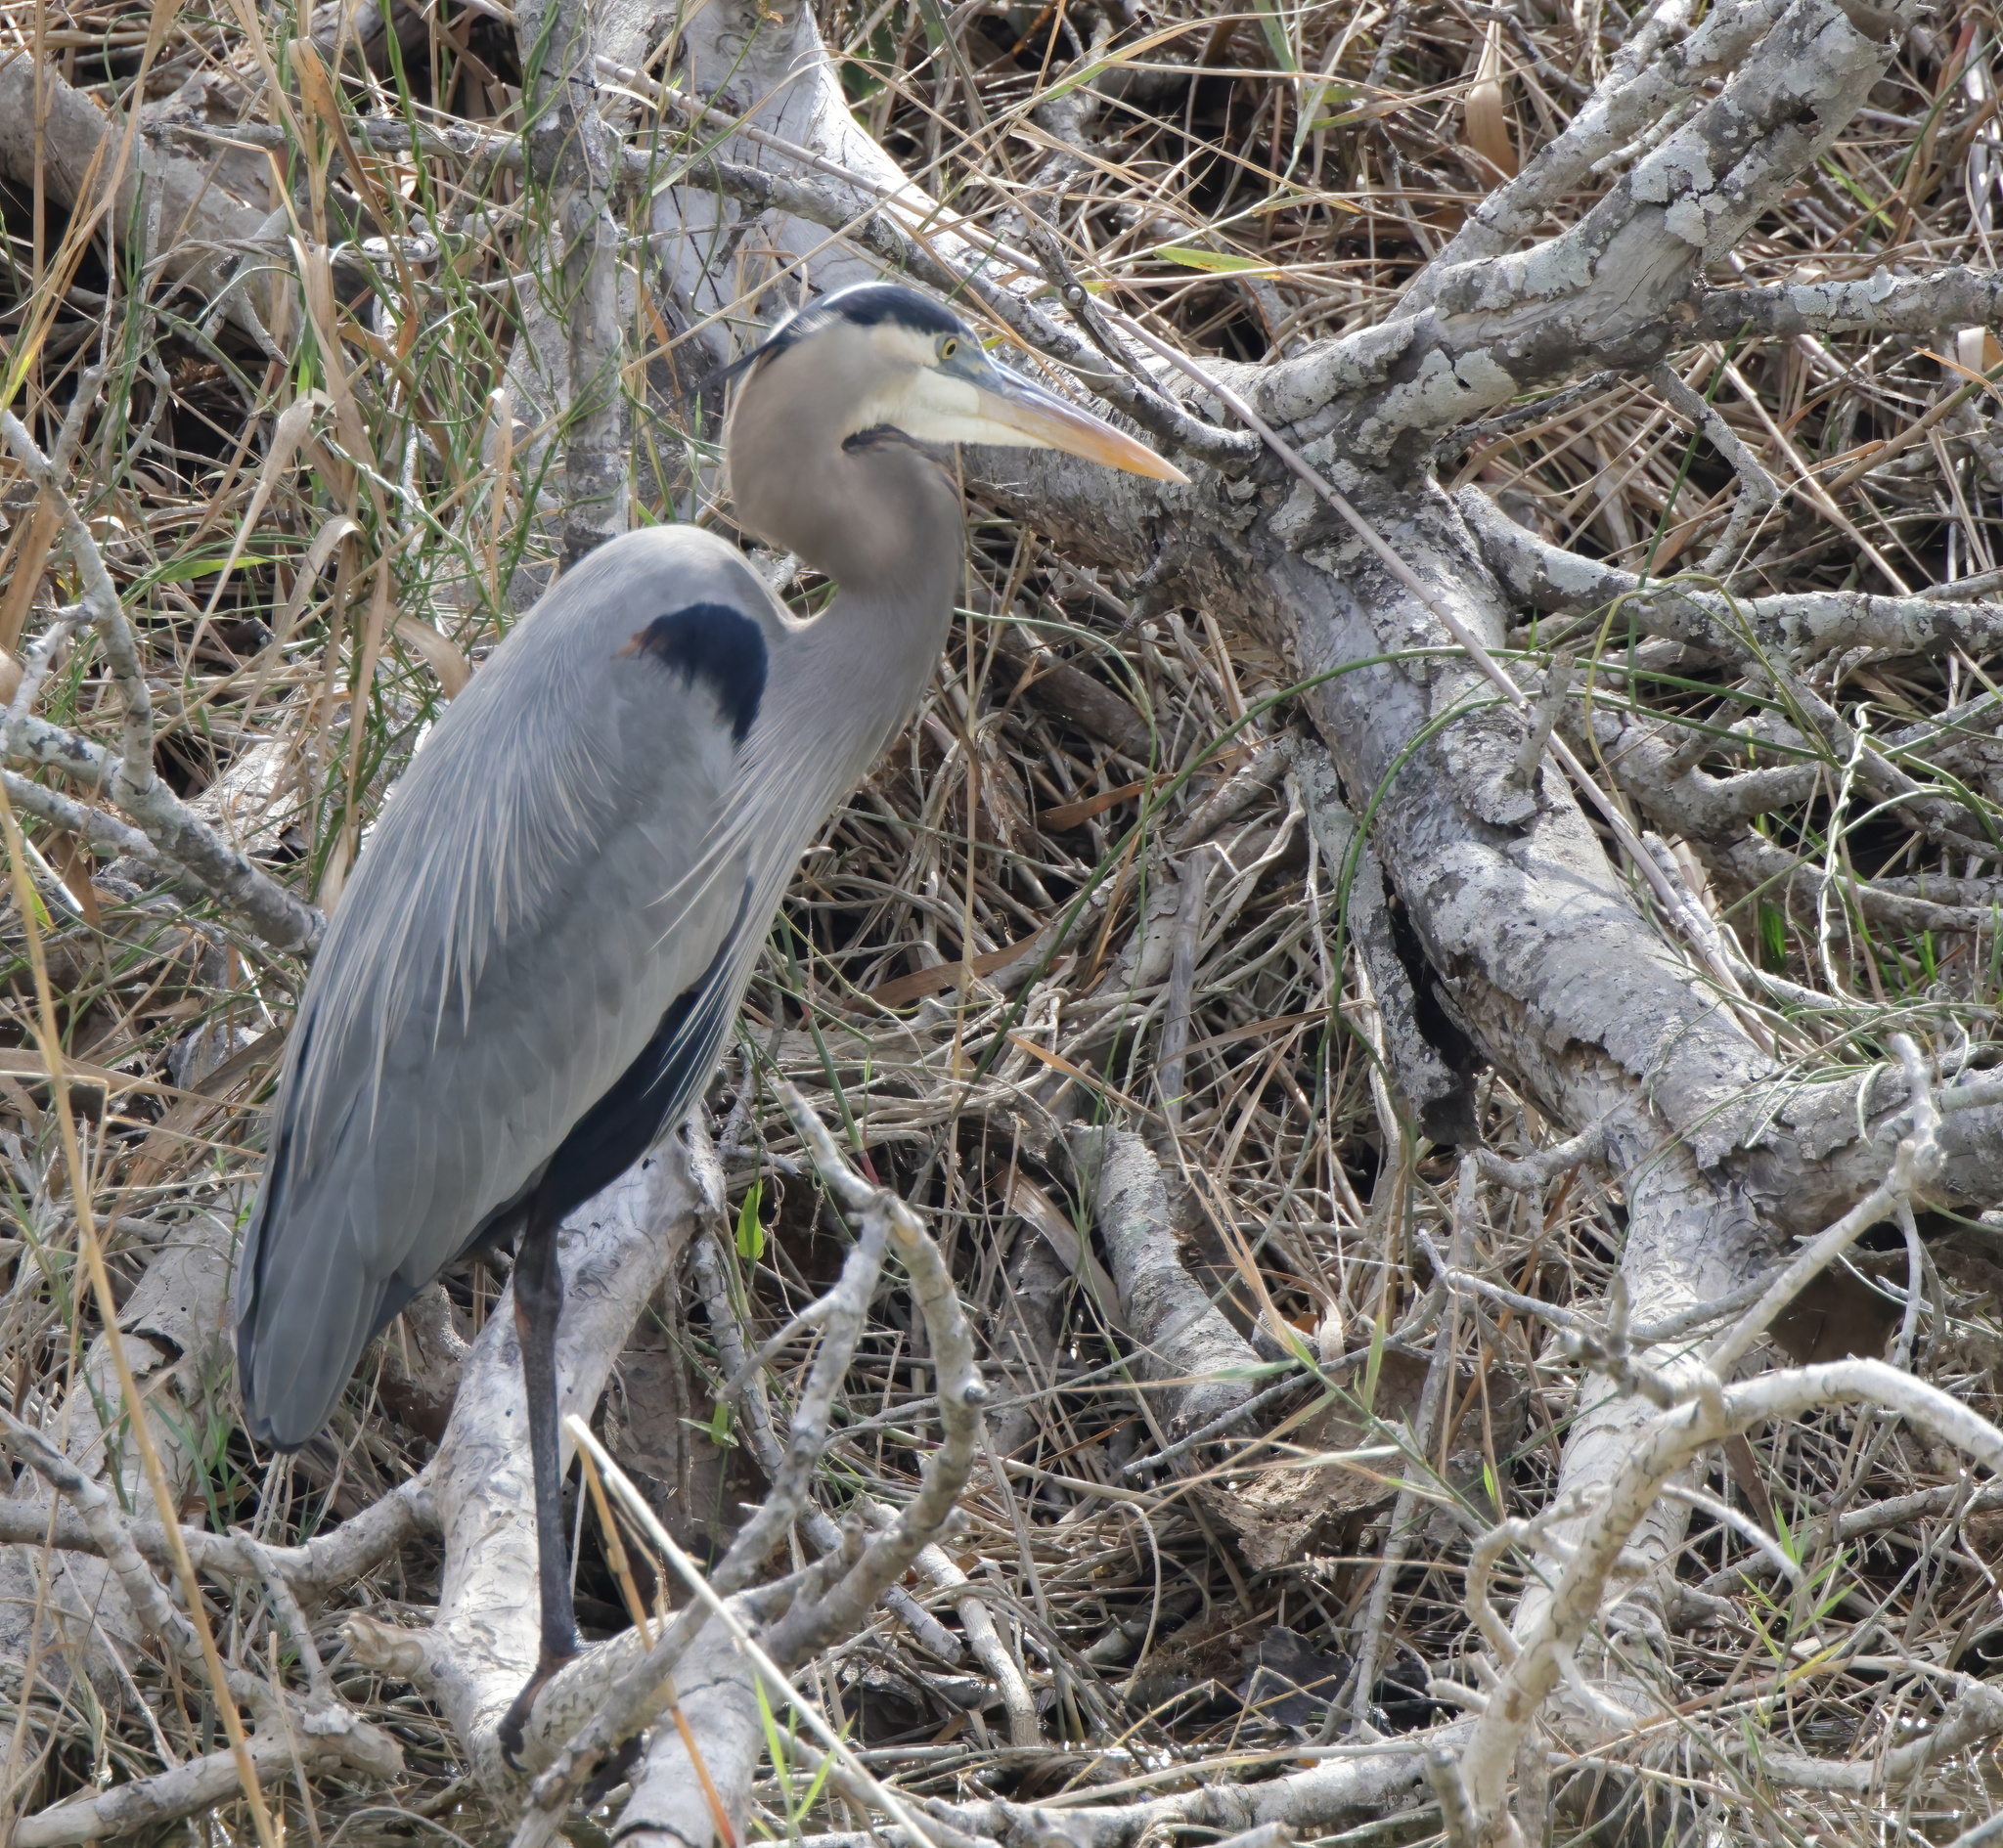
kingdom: Animalia
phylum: Chordata
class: Aves
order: Pelecaniformes
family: Ardeidae
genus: Ardea
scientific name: Ardea herodias
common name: Great blue heron
